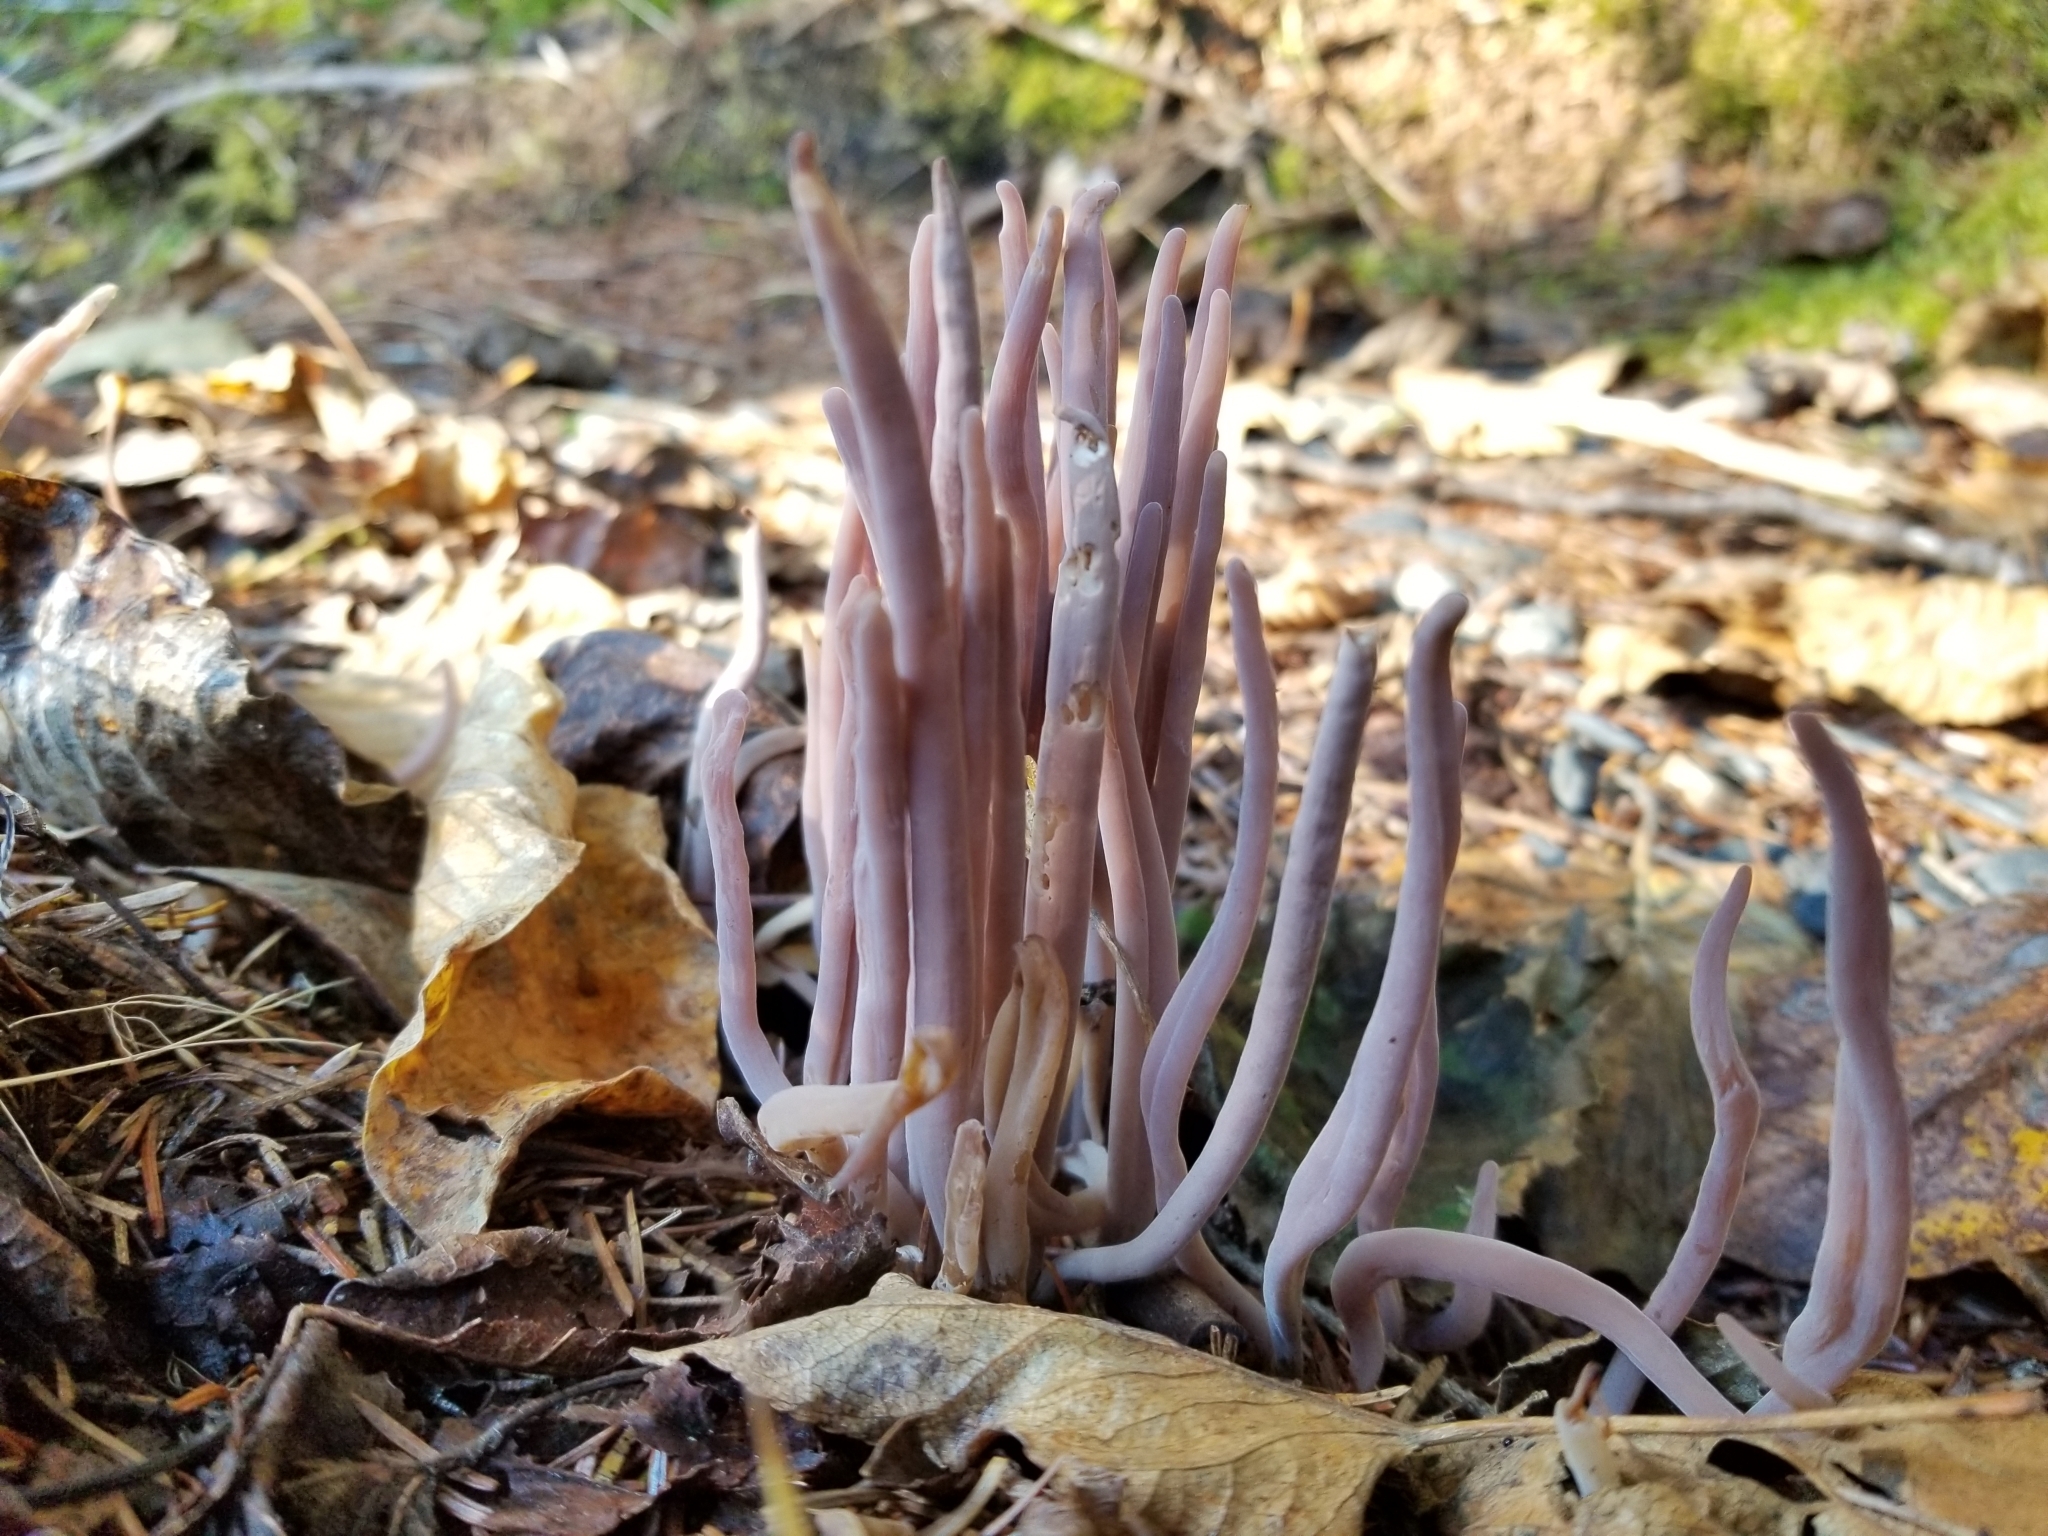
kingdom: Fungi
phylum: Basidiomycota
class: Agaricomycetes
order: Hymenochaetales
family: Rickenellaceae
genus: Alloclavaria
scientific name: Alloclavaria purpurea
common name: Purple spindles
